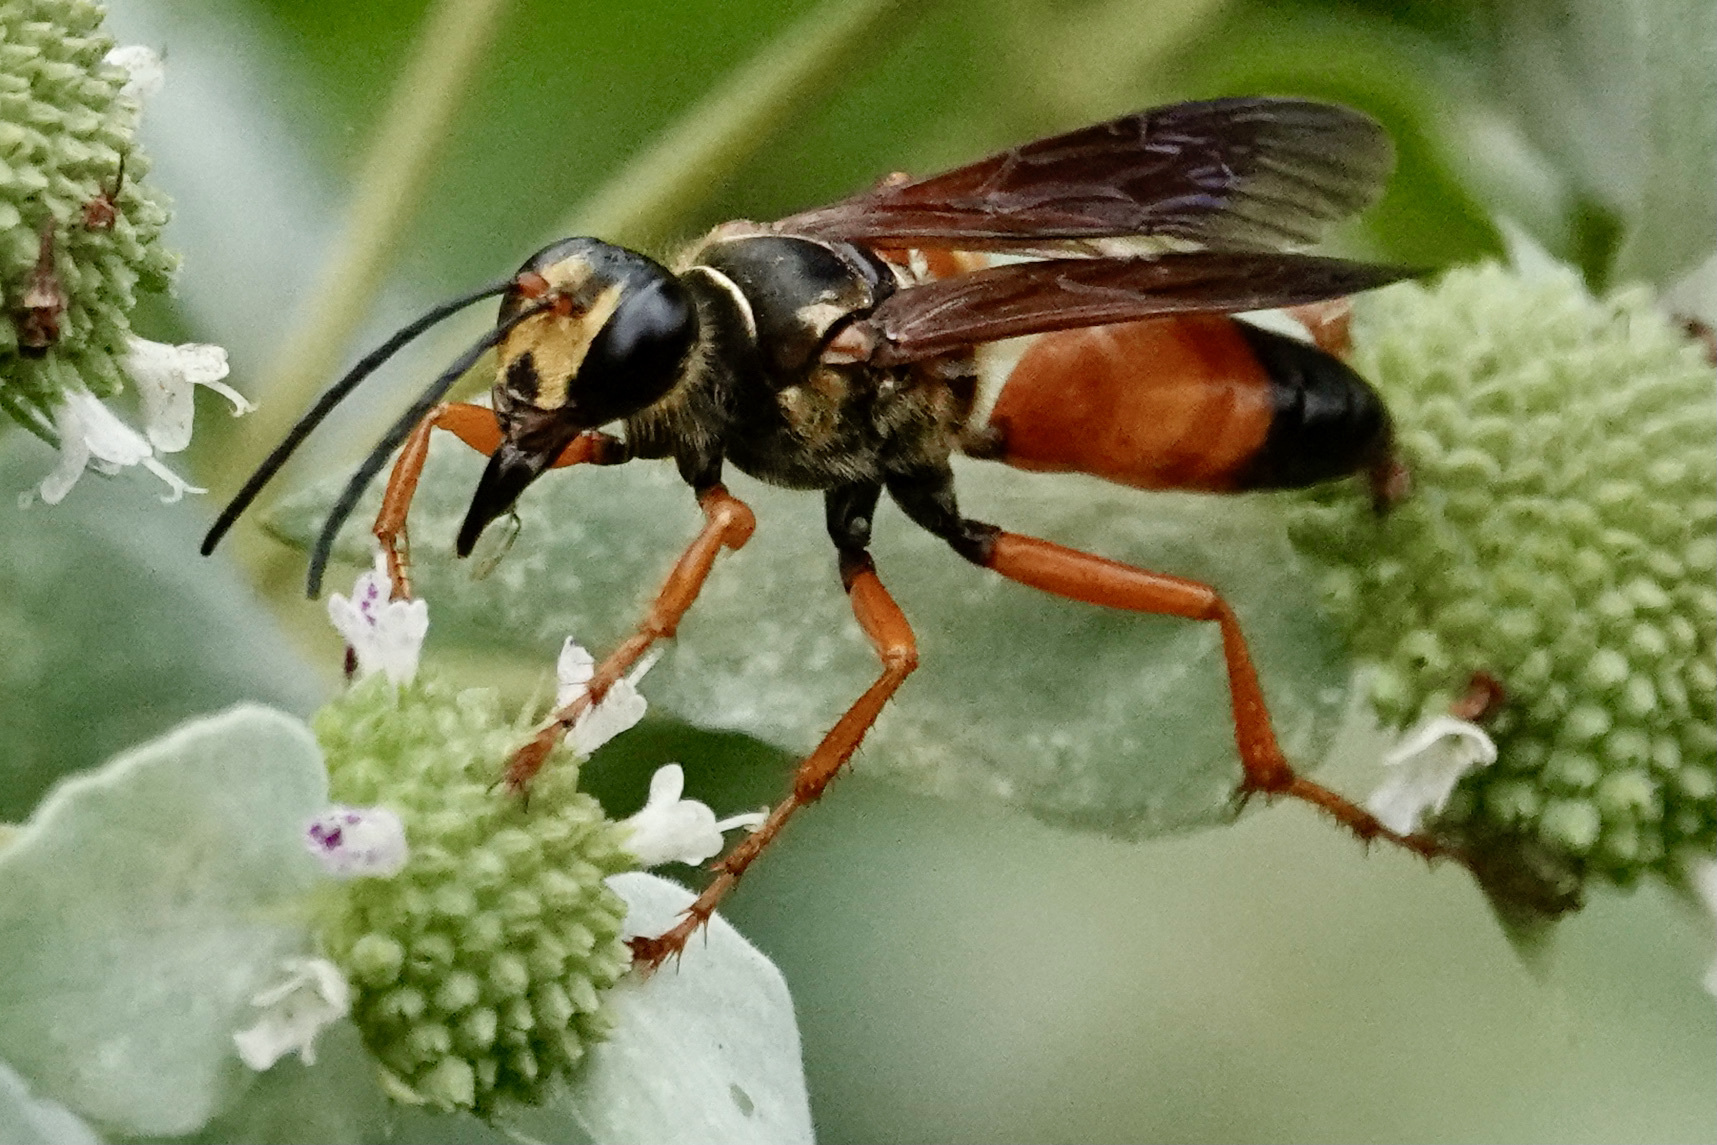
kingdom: Animalia
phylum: Arthropoda
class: Insecta
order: Hymenoptera
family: Sphecidae
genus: Sphex
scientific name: Sphex ichneumoneus
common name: Great golden digger wasp
